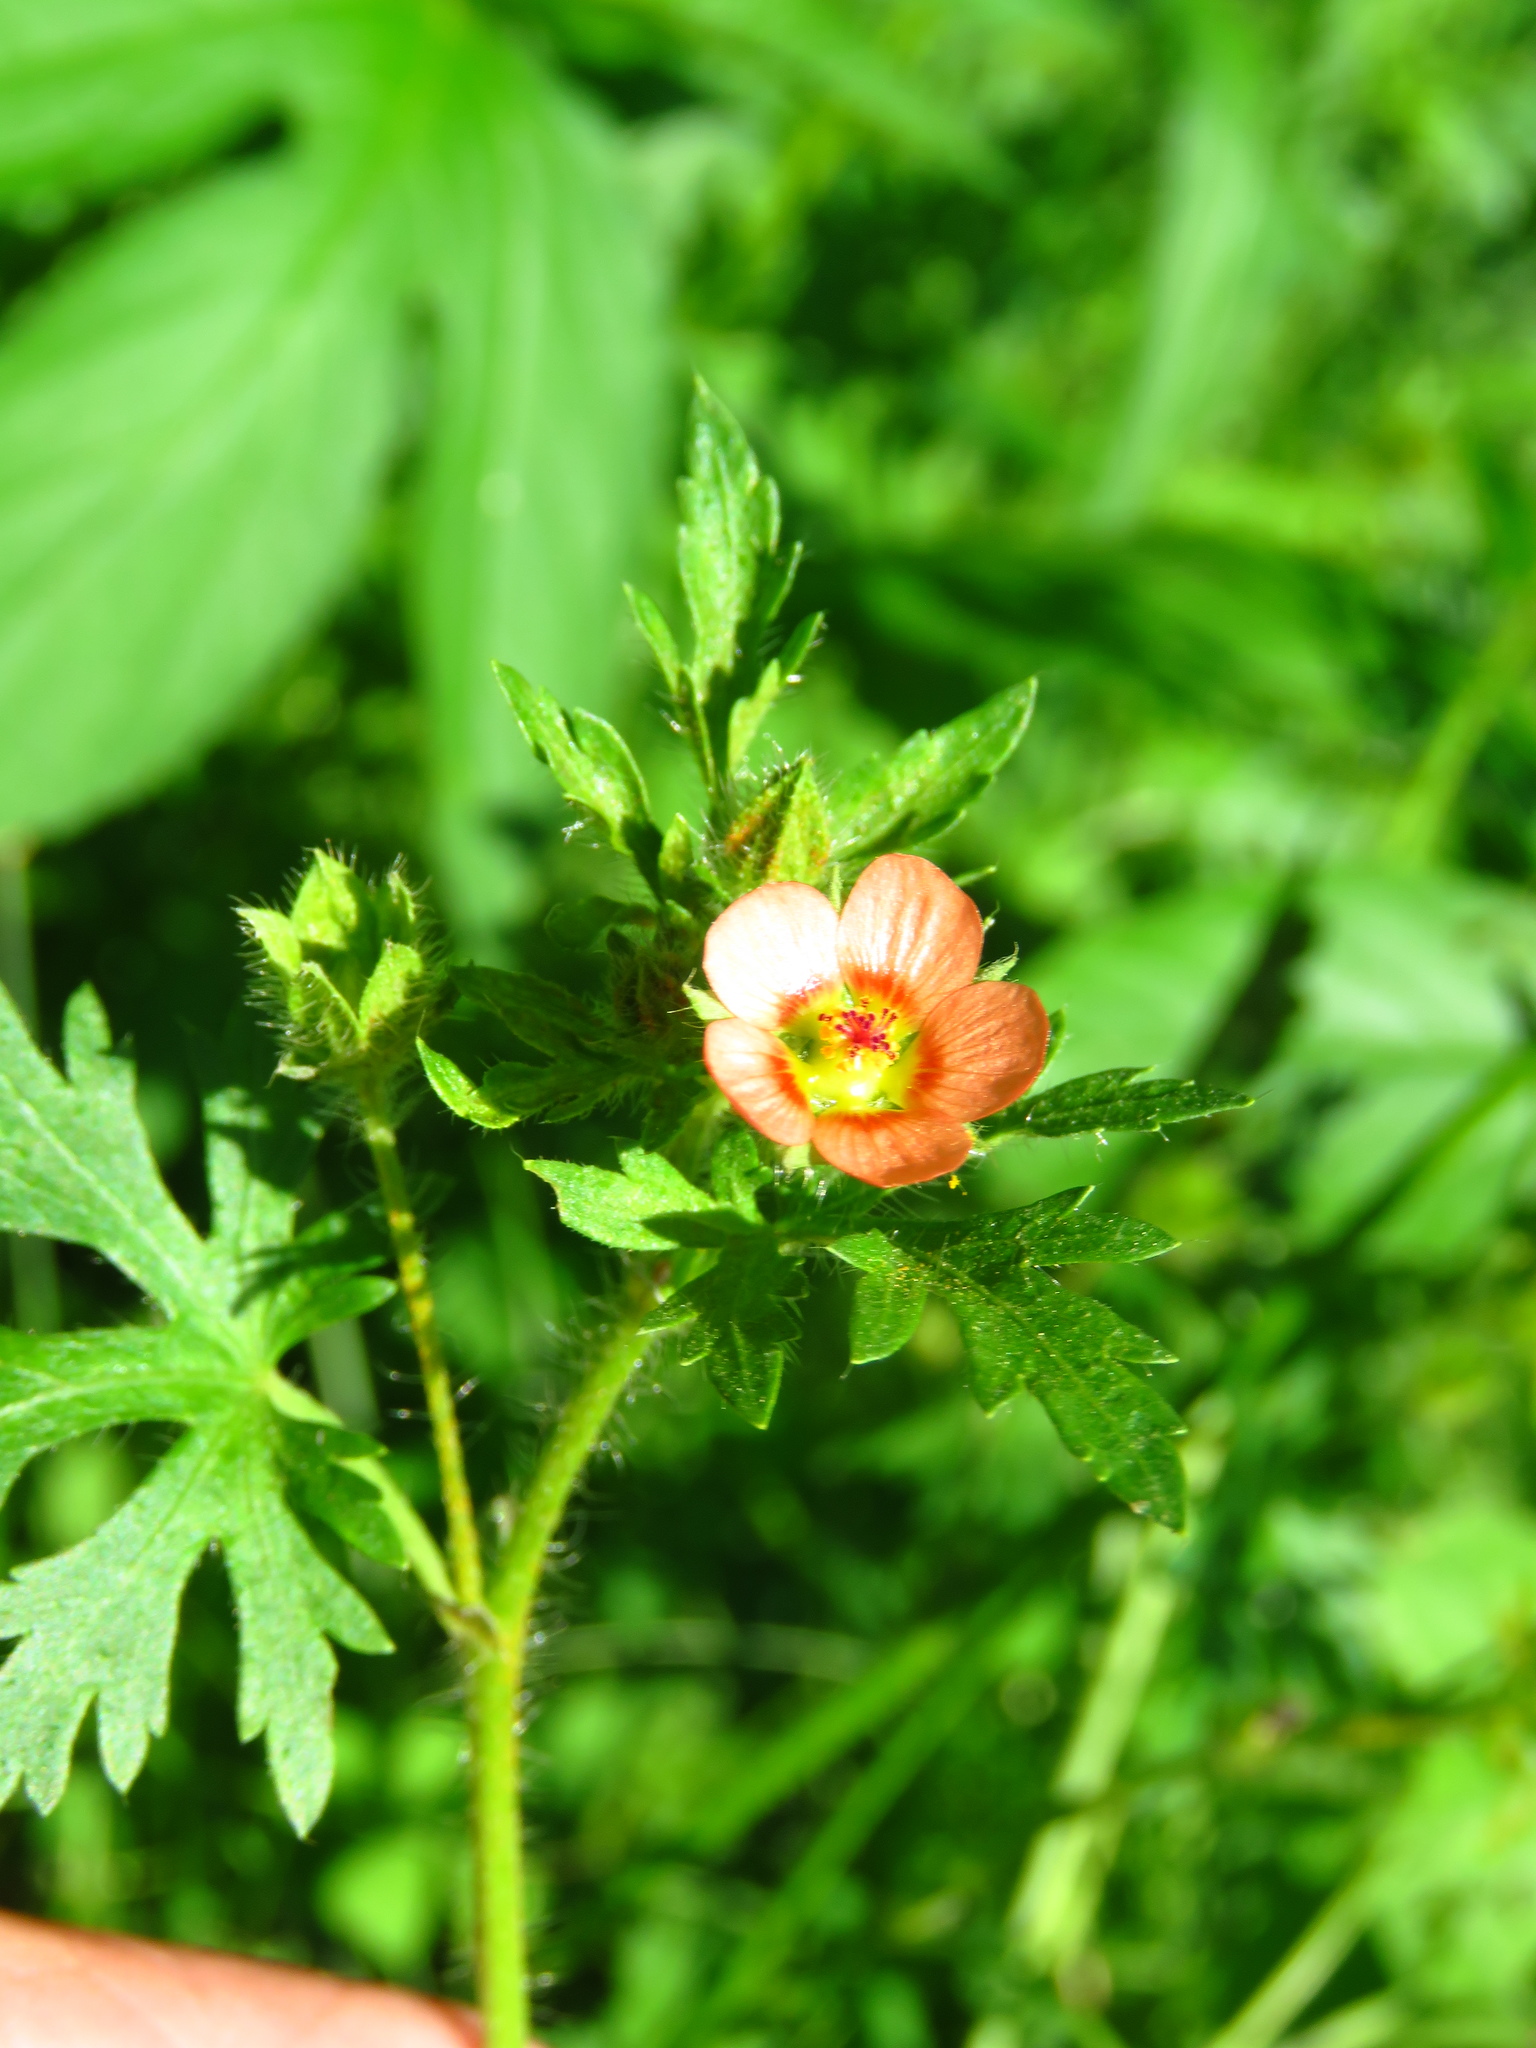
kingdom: Plantae
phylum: Tracheophyta
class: Magnoliopsida
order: Malvales
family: Malvaceae
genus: Modiola
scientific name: Modiola caroliniana
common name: Carolina bristlemallow
